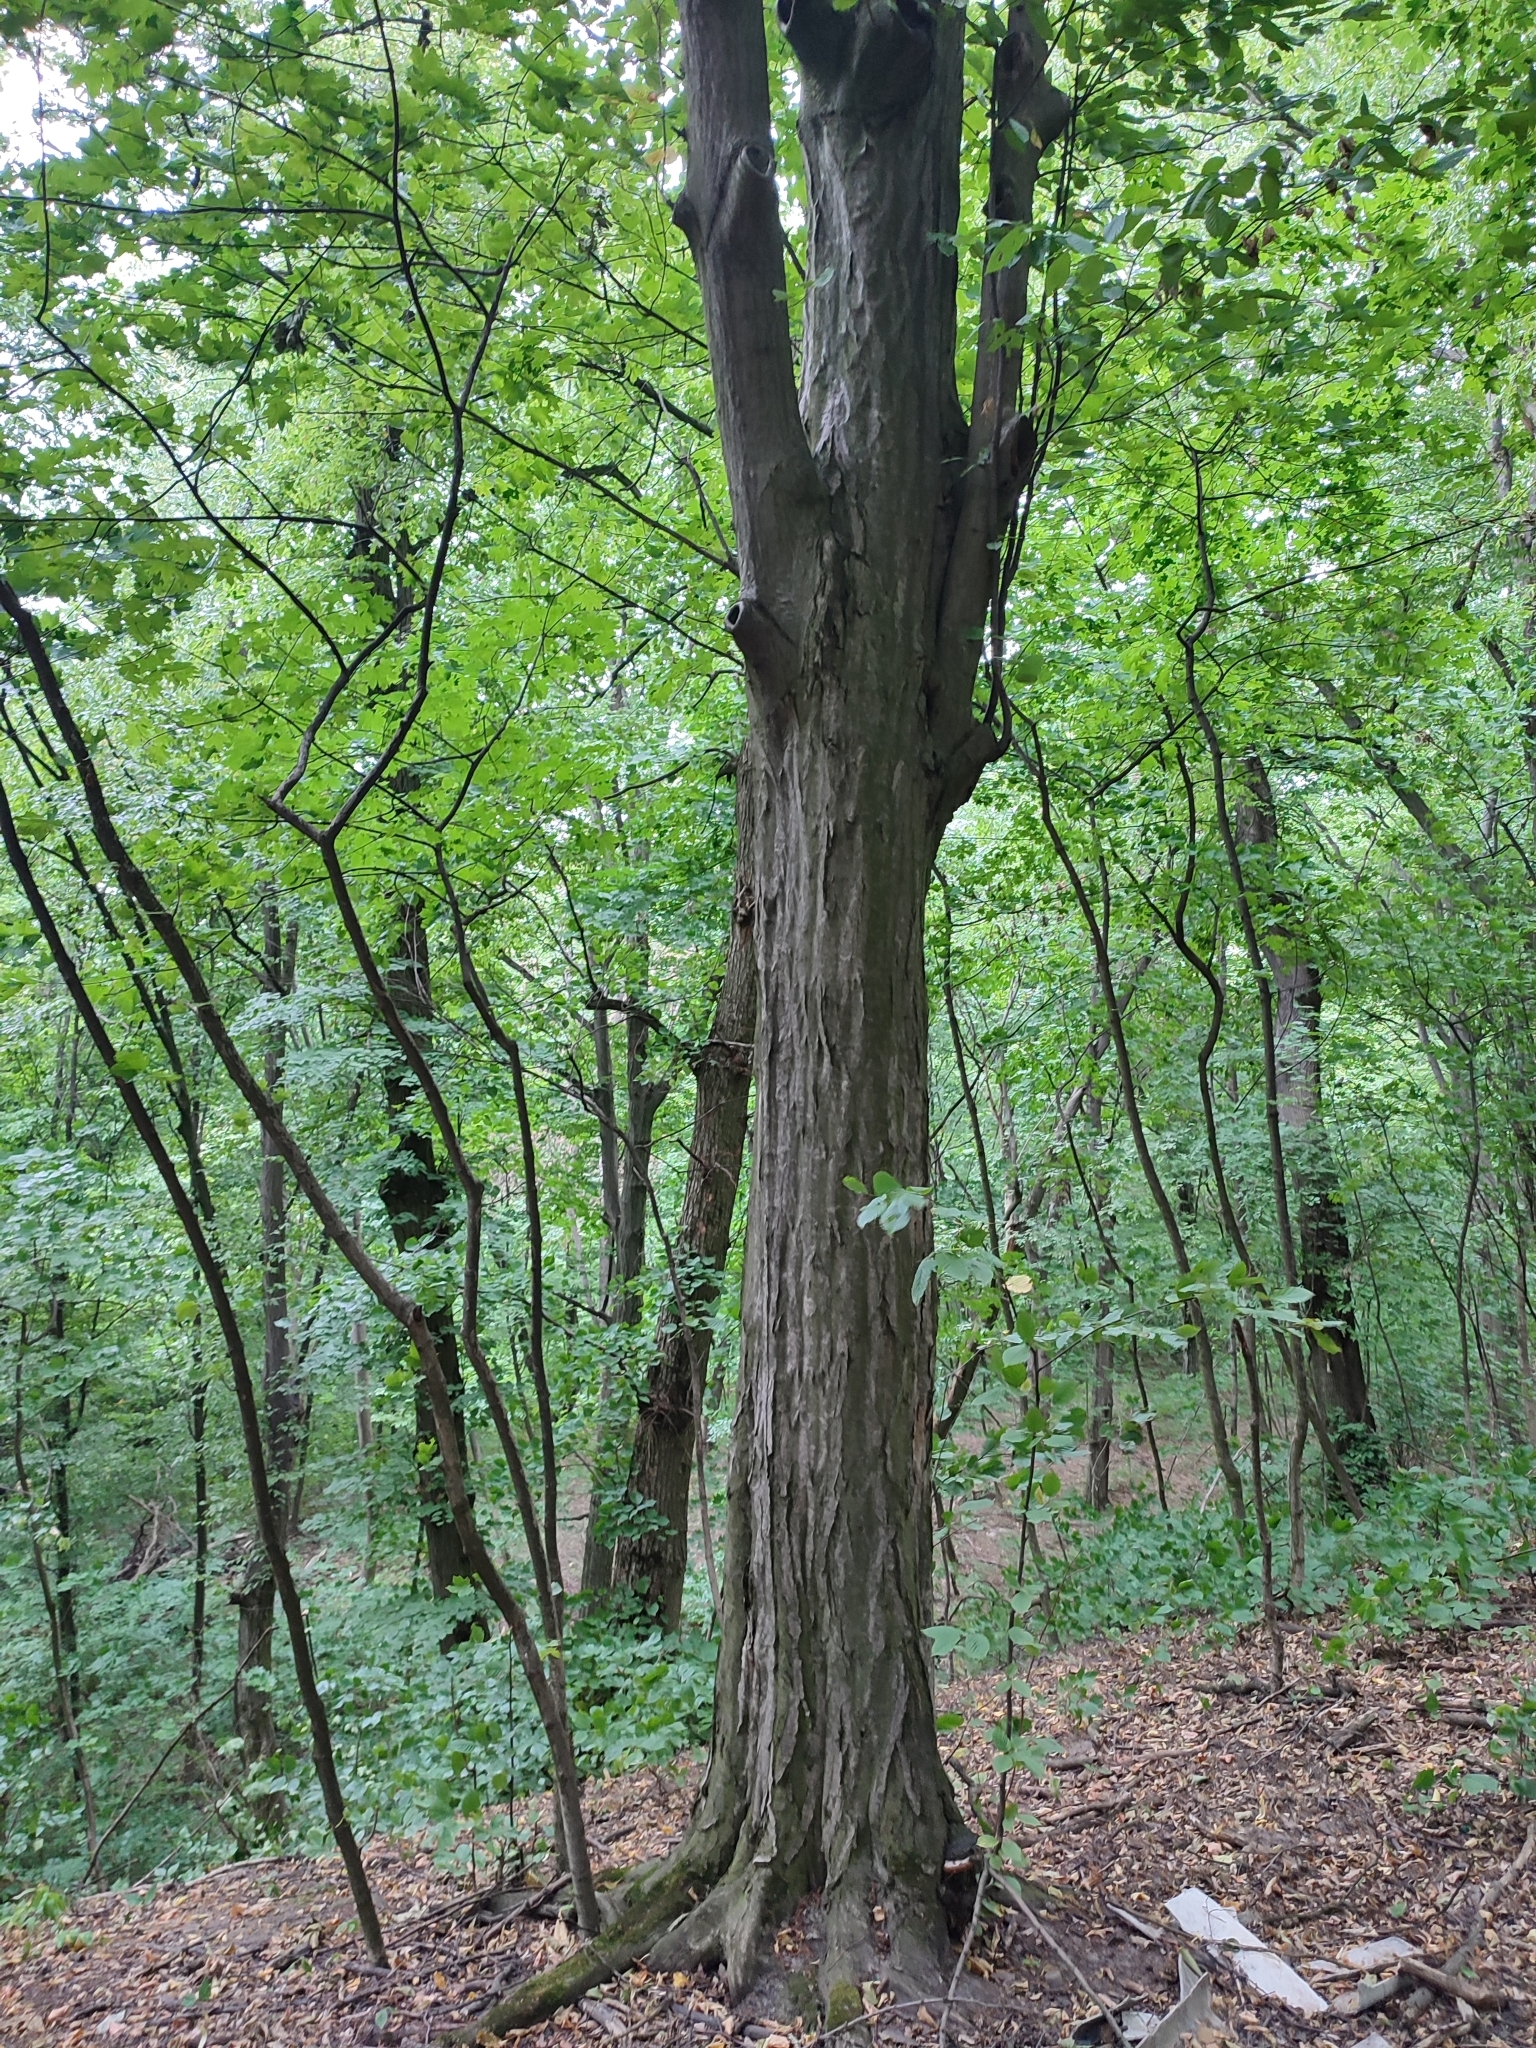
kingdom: Plantae
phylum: Tracheophyta
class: Magnoliopsida
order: Fagales
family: Betulaceae
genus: Carpinus
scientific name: Carpinus betulus
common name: Hornbeam
